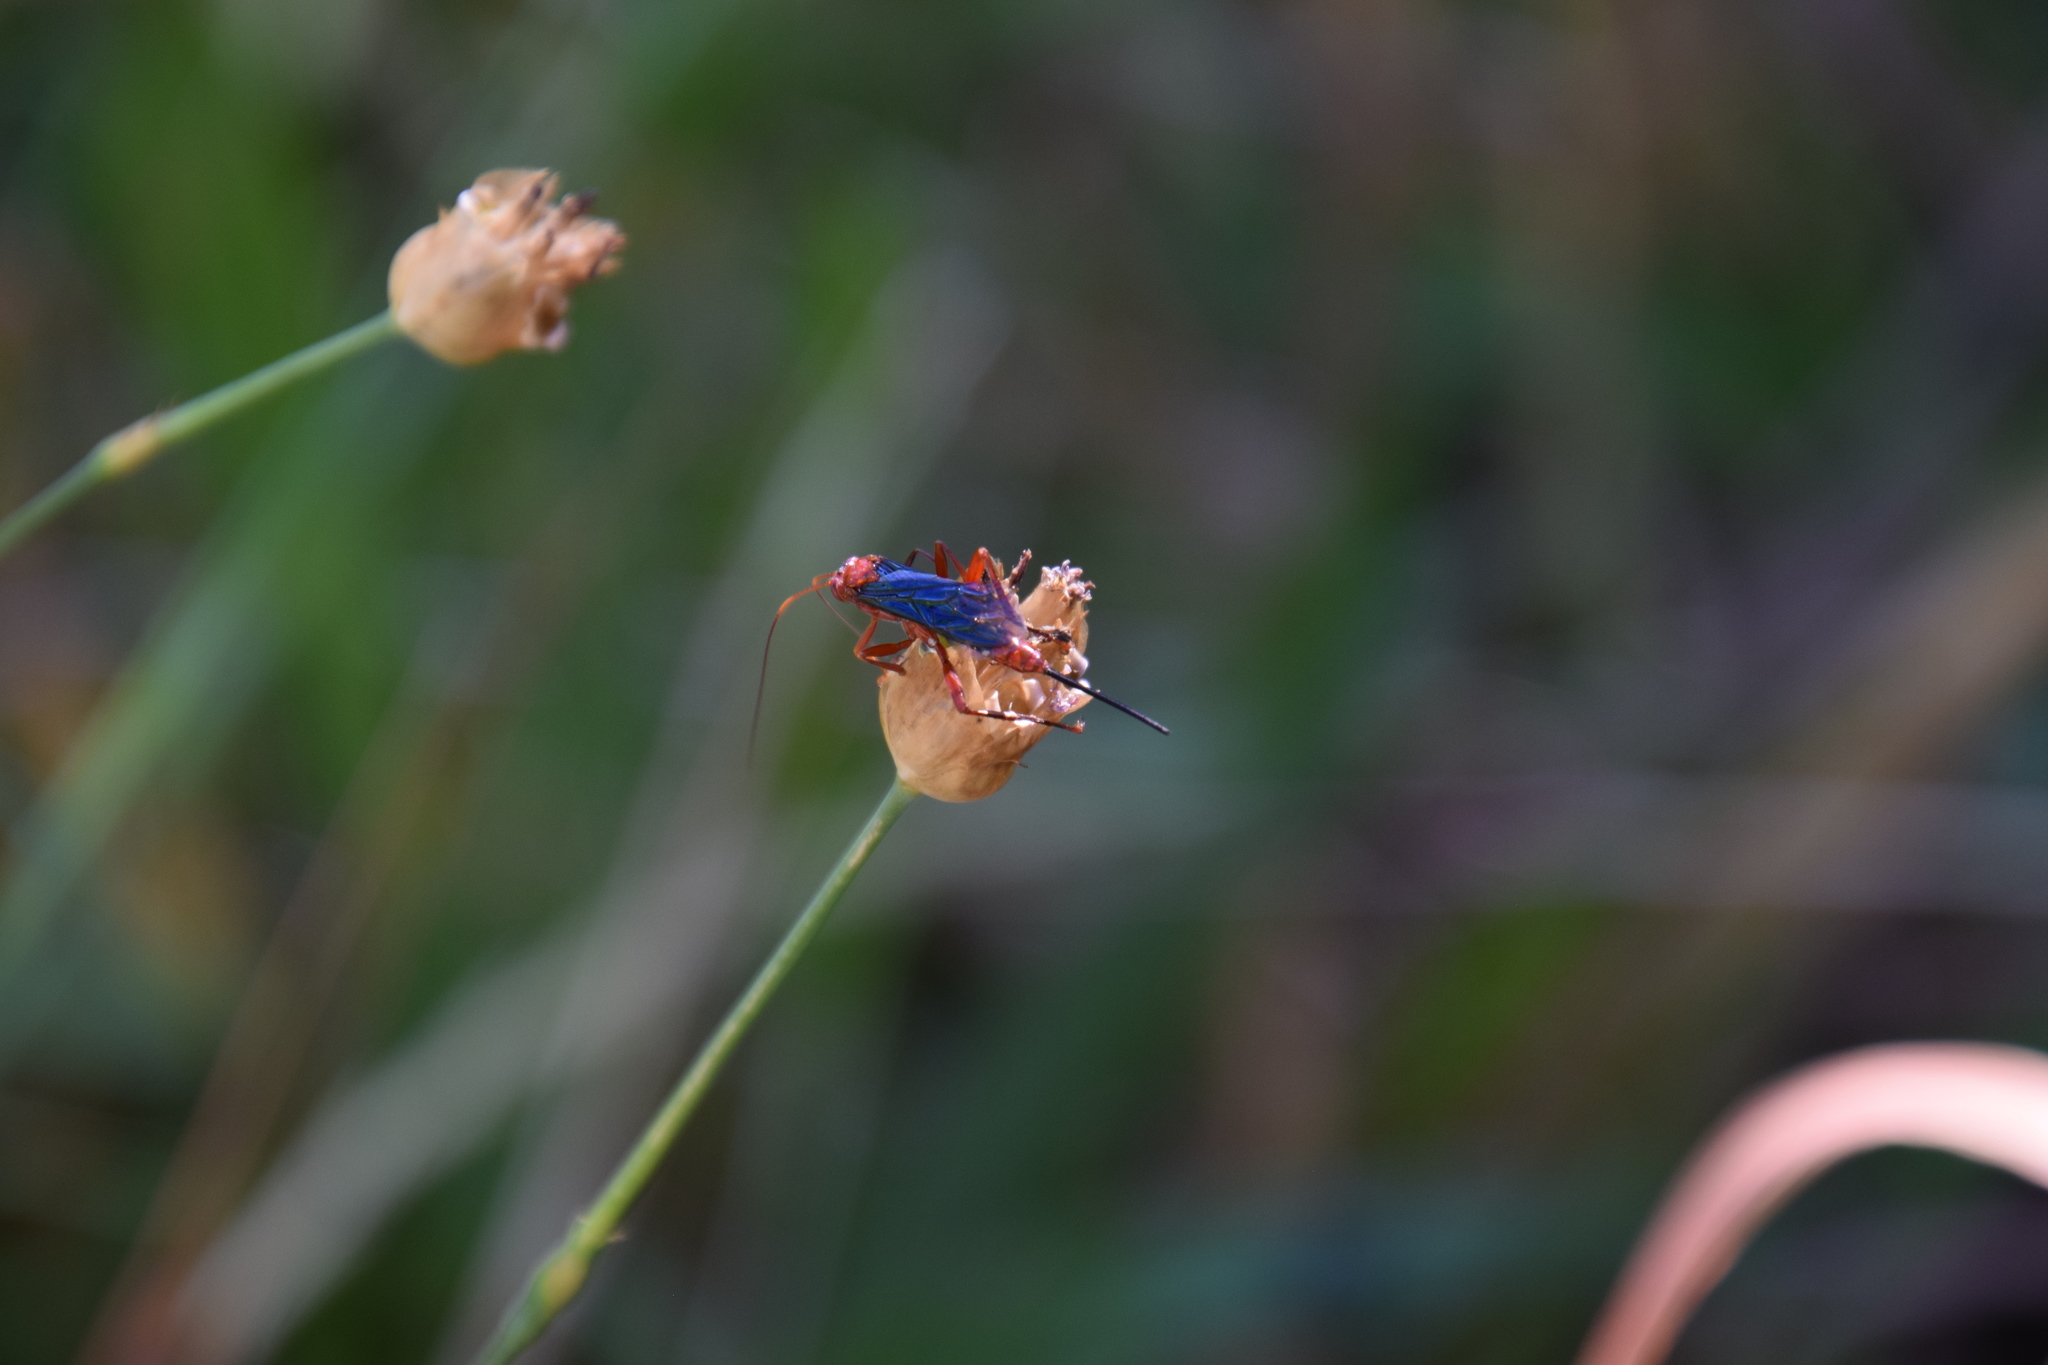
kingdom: Animalia
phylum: Arthropoda
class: Insecta
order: Hymenoptera
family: Ichneumonidae
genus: Lissopimpla
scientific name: Lissopimpla excelsa
